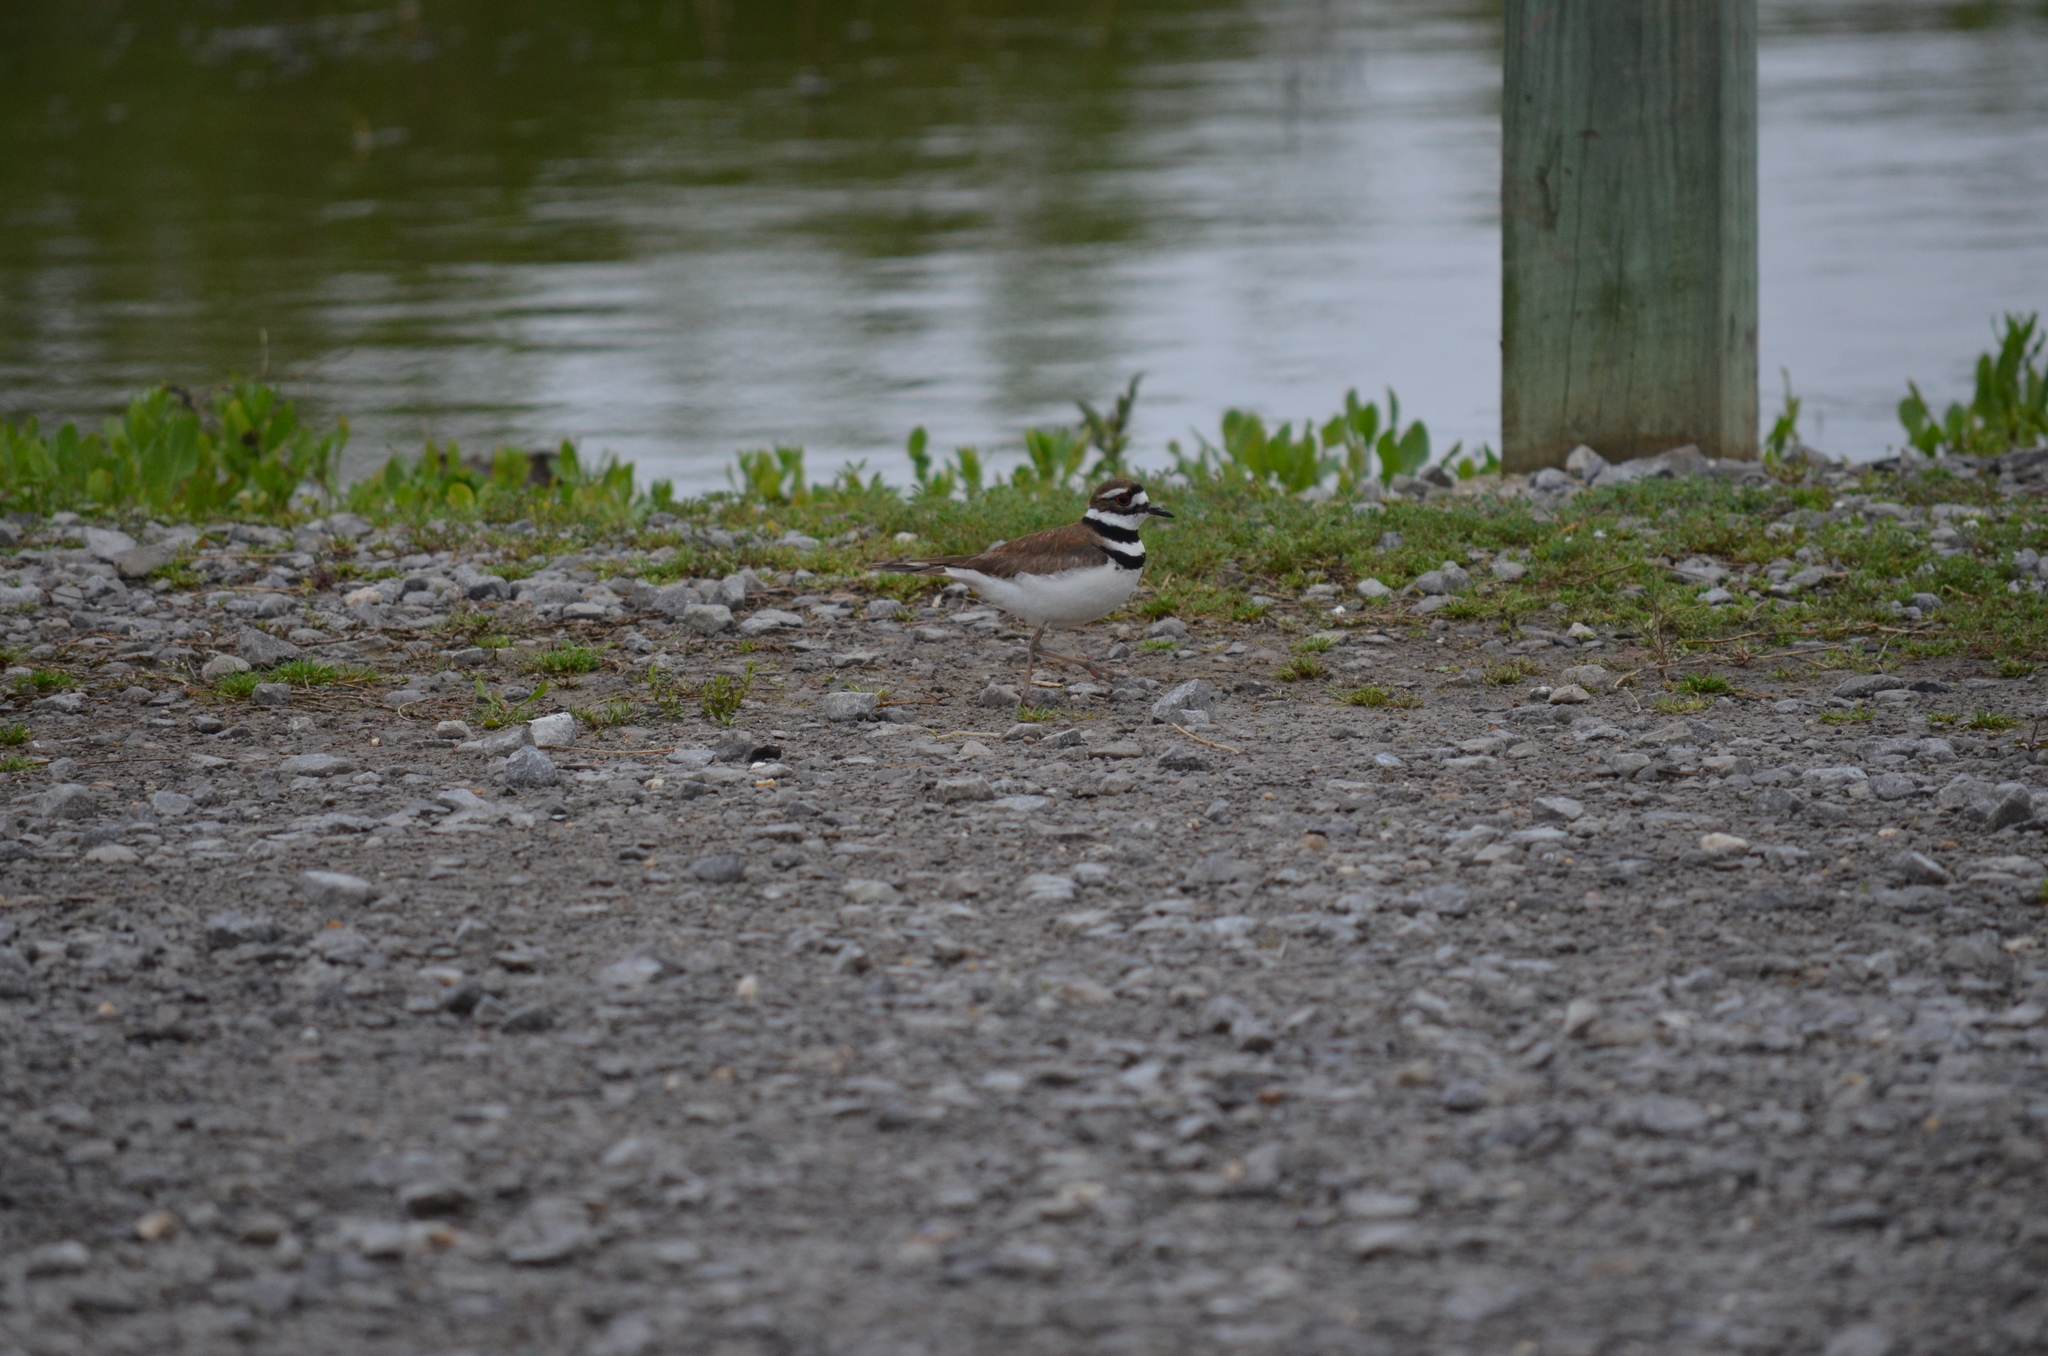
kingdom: Animalia
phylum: Chordata
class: Aves
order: Charadriiformes
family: Charadriidae
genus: Charadrius
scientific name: Charadrius vociferus
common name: Killdeer
